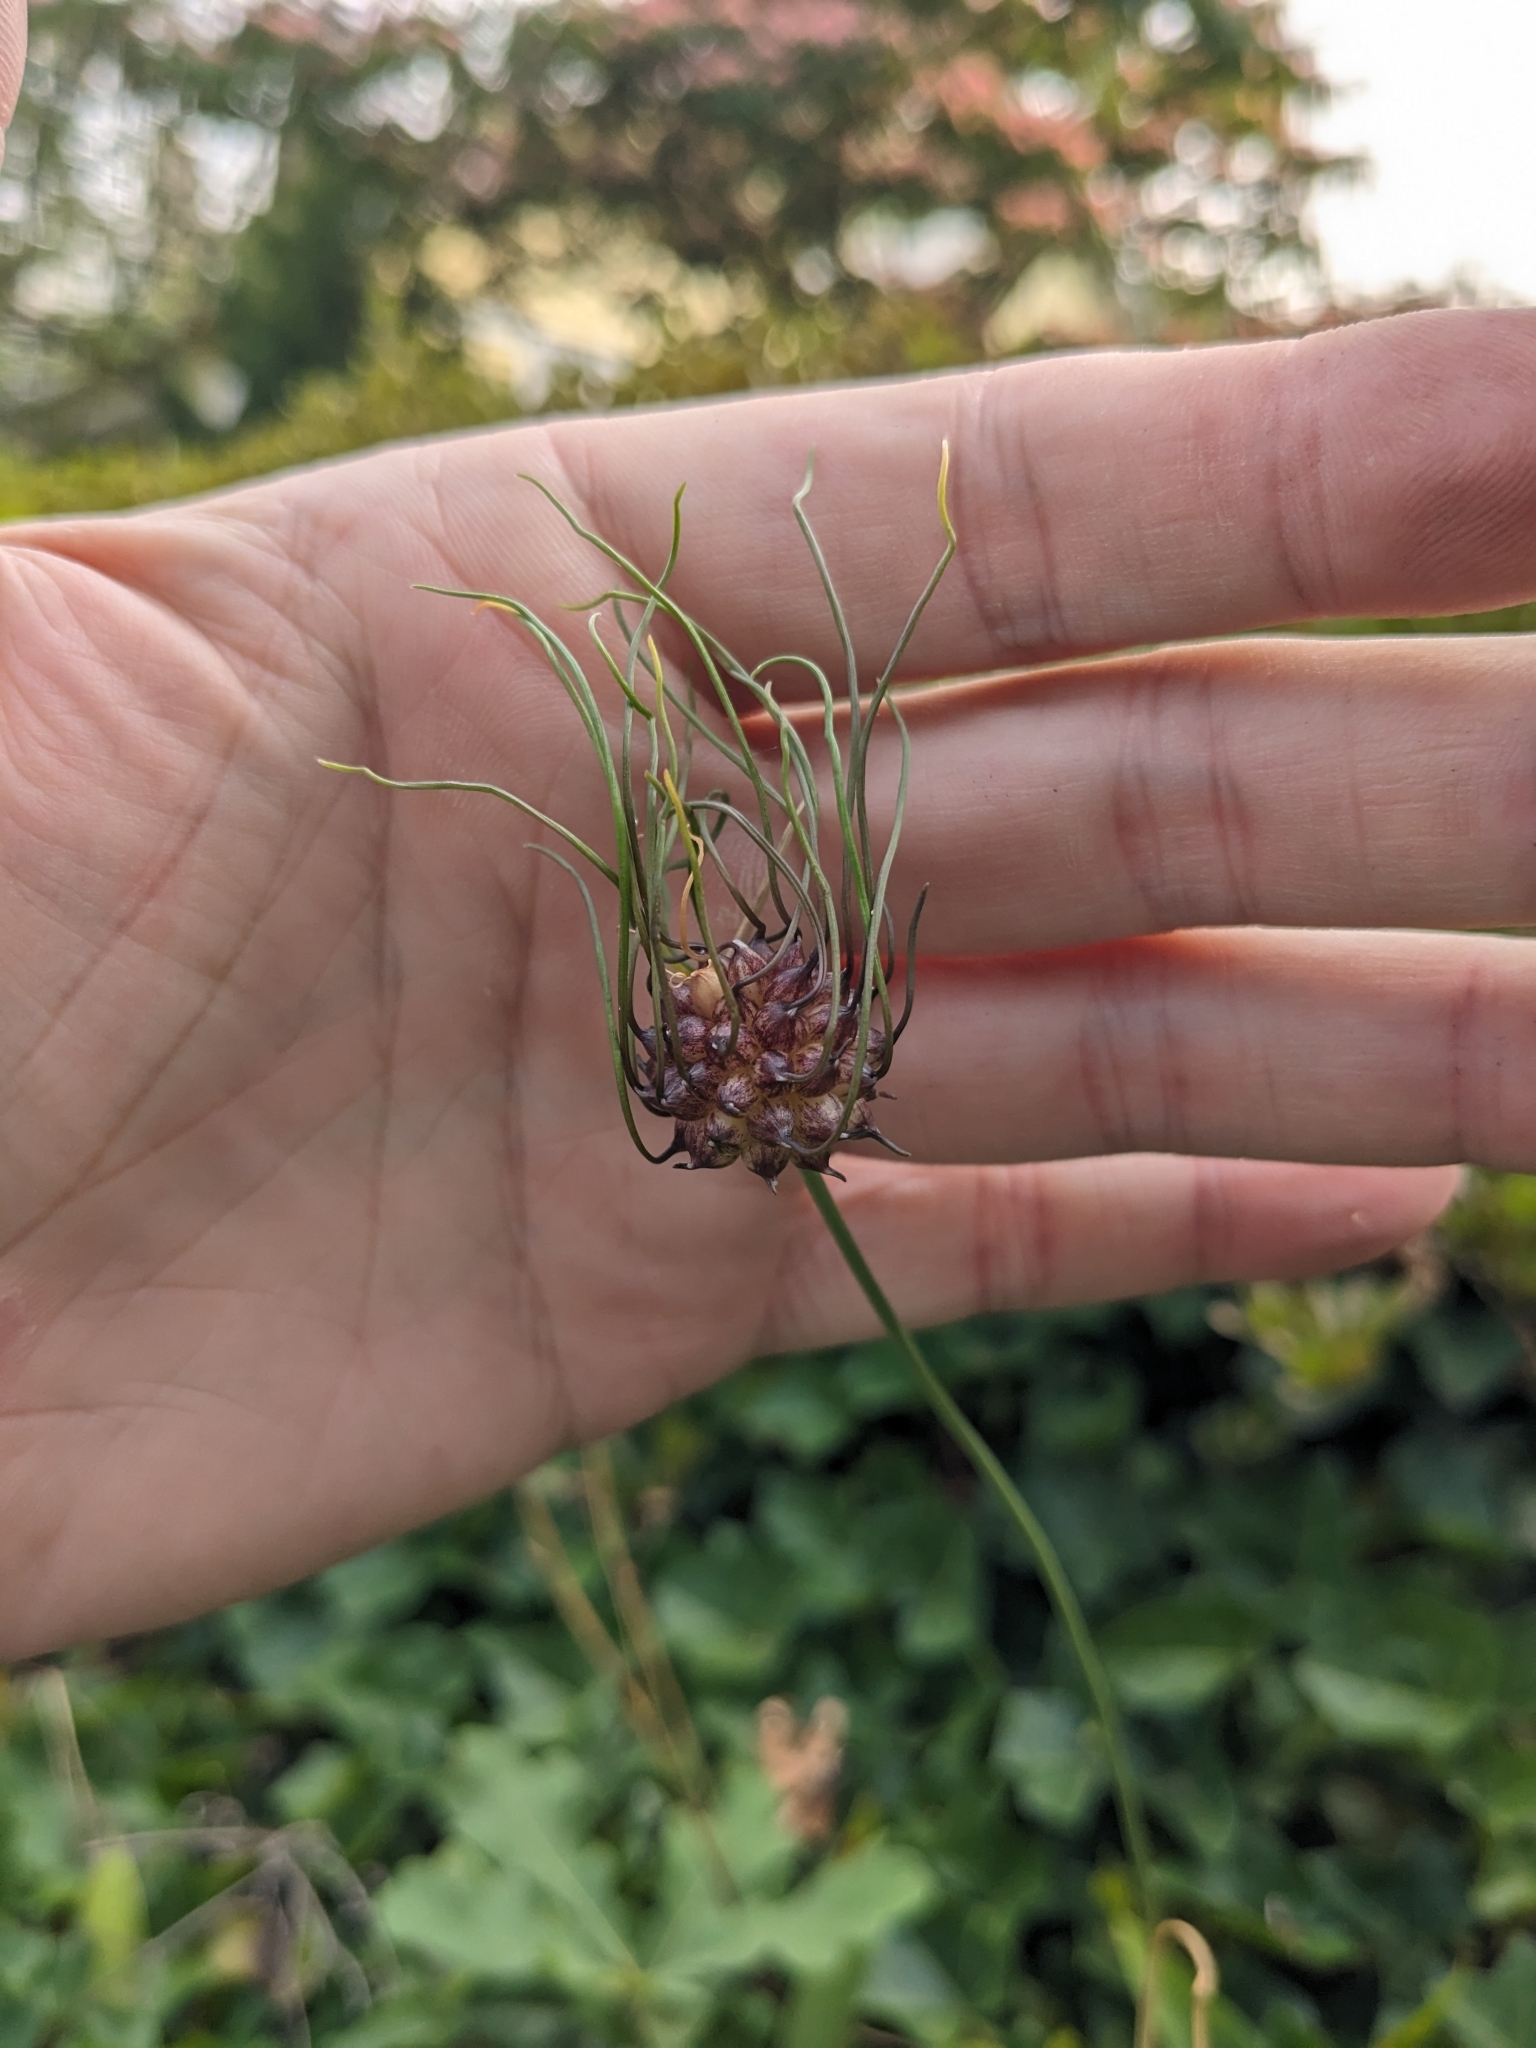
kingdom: Plantae
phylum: Tracheophyta
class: Liliopsida
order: Asparagales
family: Amaryllidaceae
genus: Allium
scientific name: Allium vineale
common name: Crow garlic
